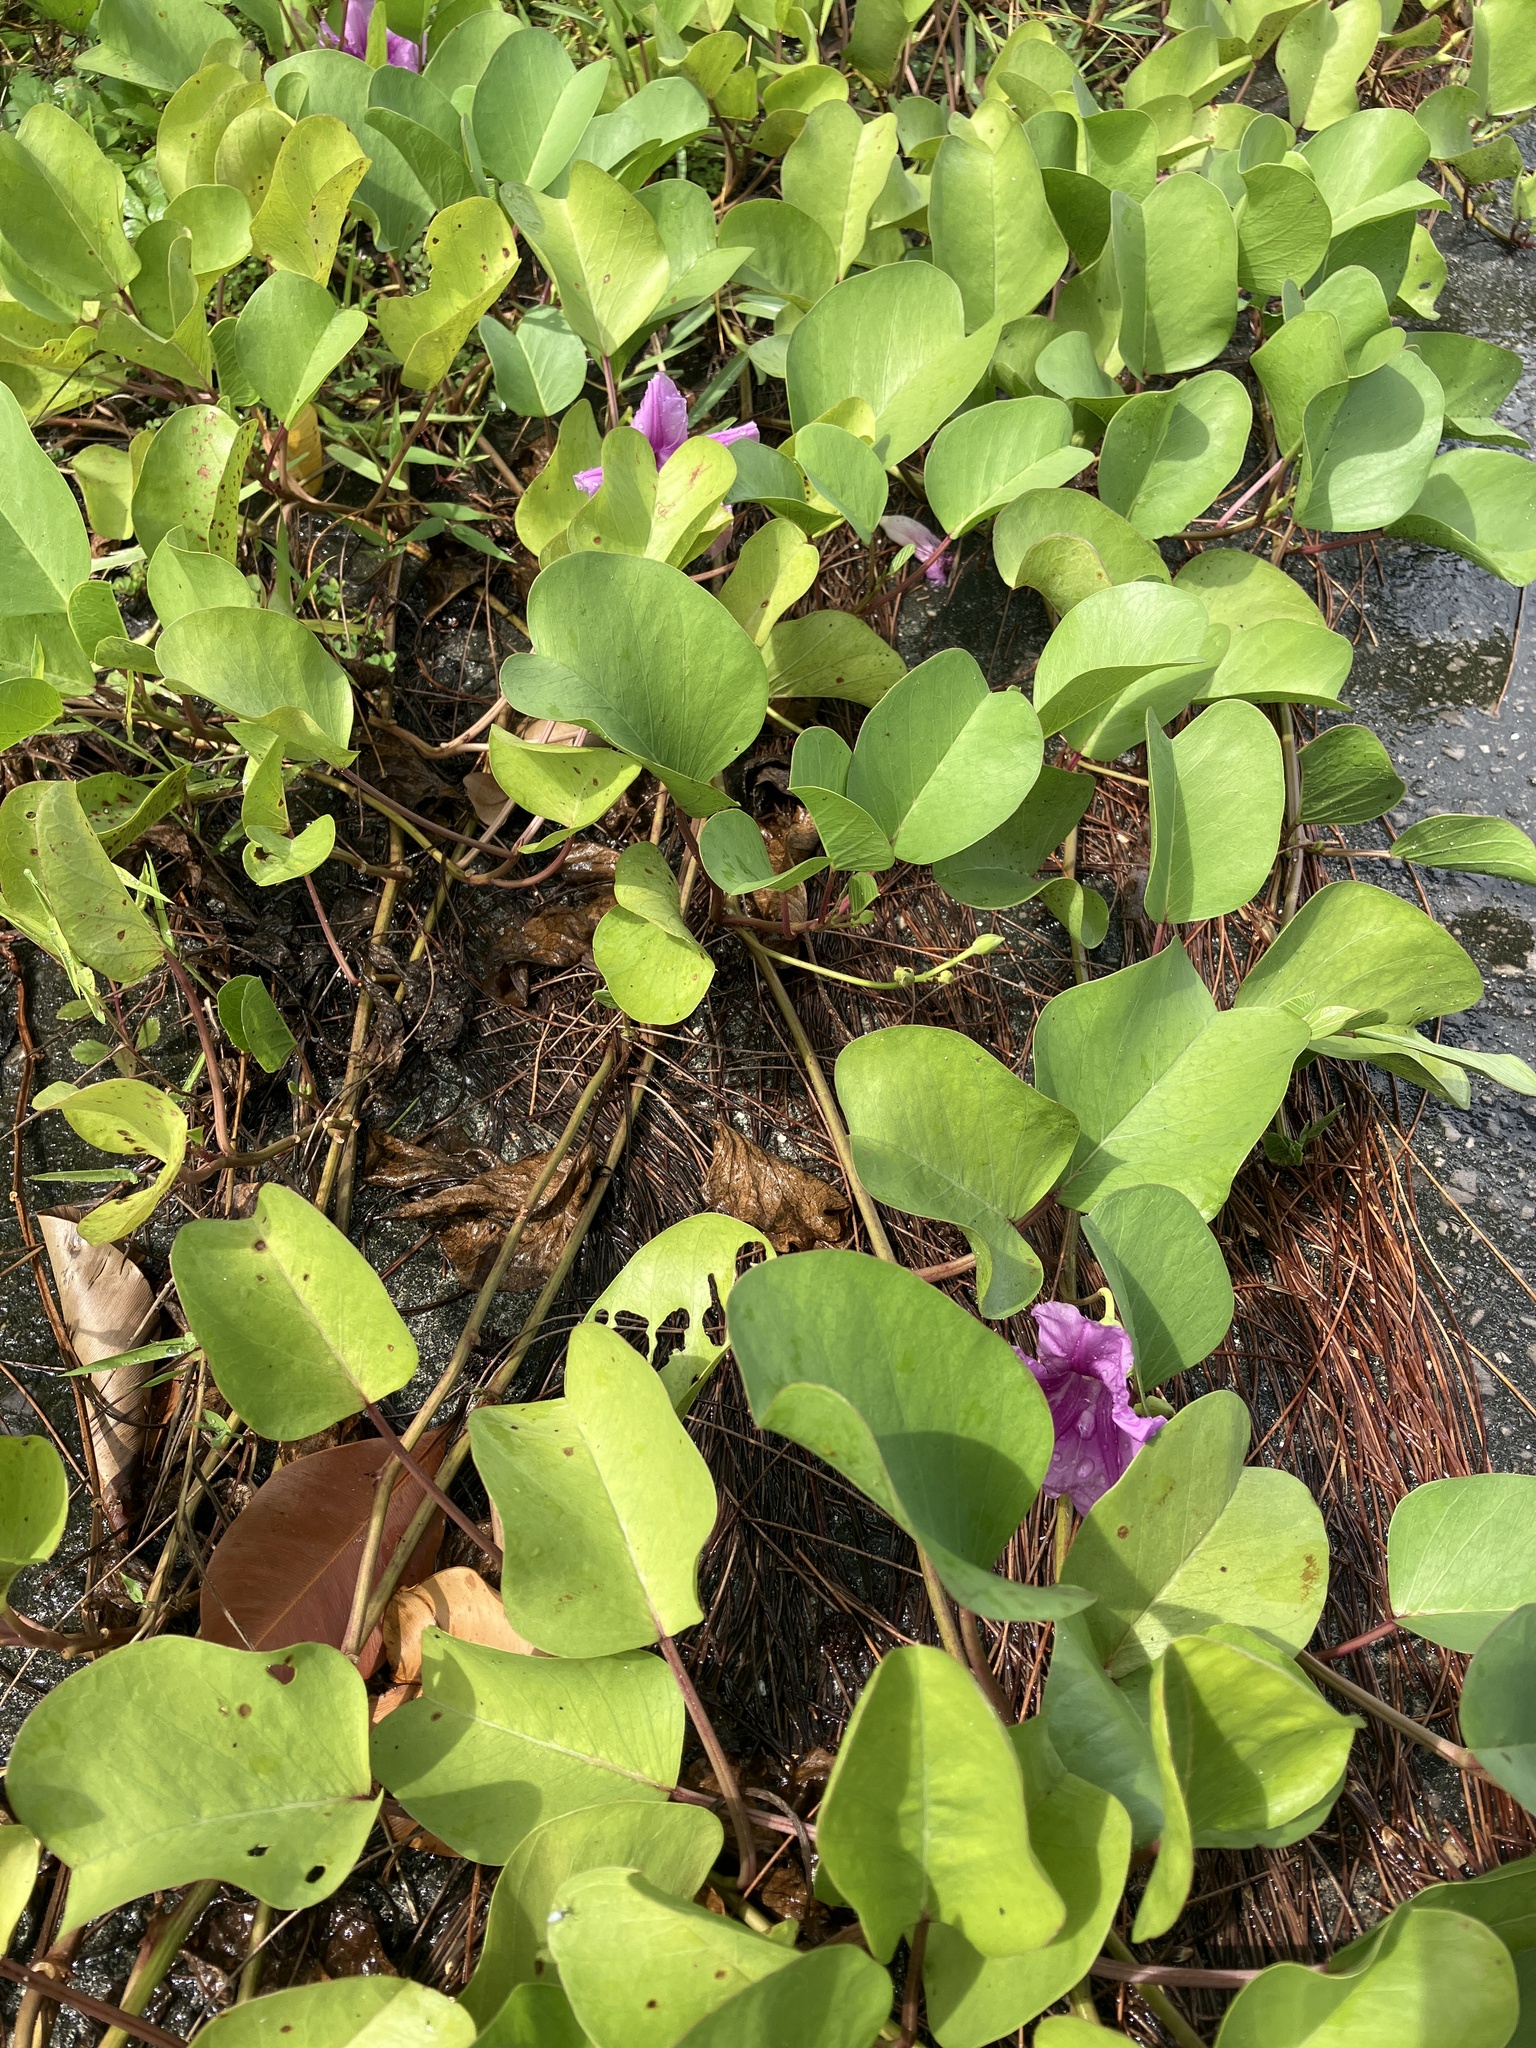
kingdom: Plantae
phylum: Tracheophyta
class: Magnoliopsida
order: Solanales
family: Convolvulaceae
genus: Ipomoea
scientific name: Ipomoea pes-caprae
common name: Beach morning glory
